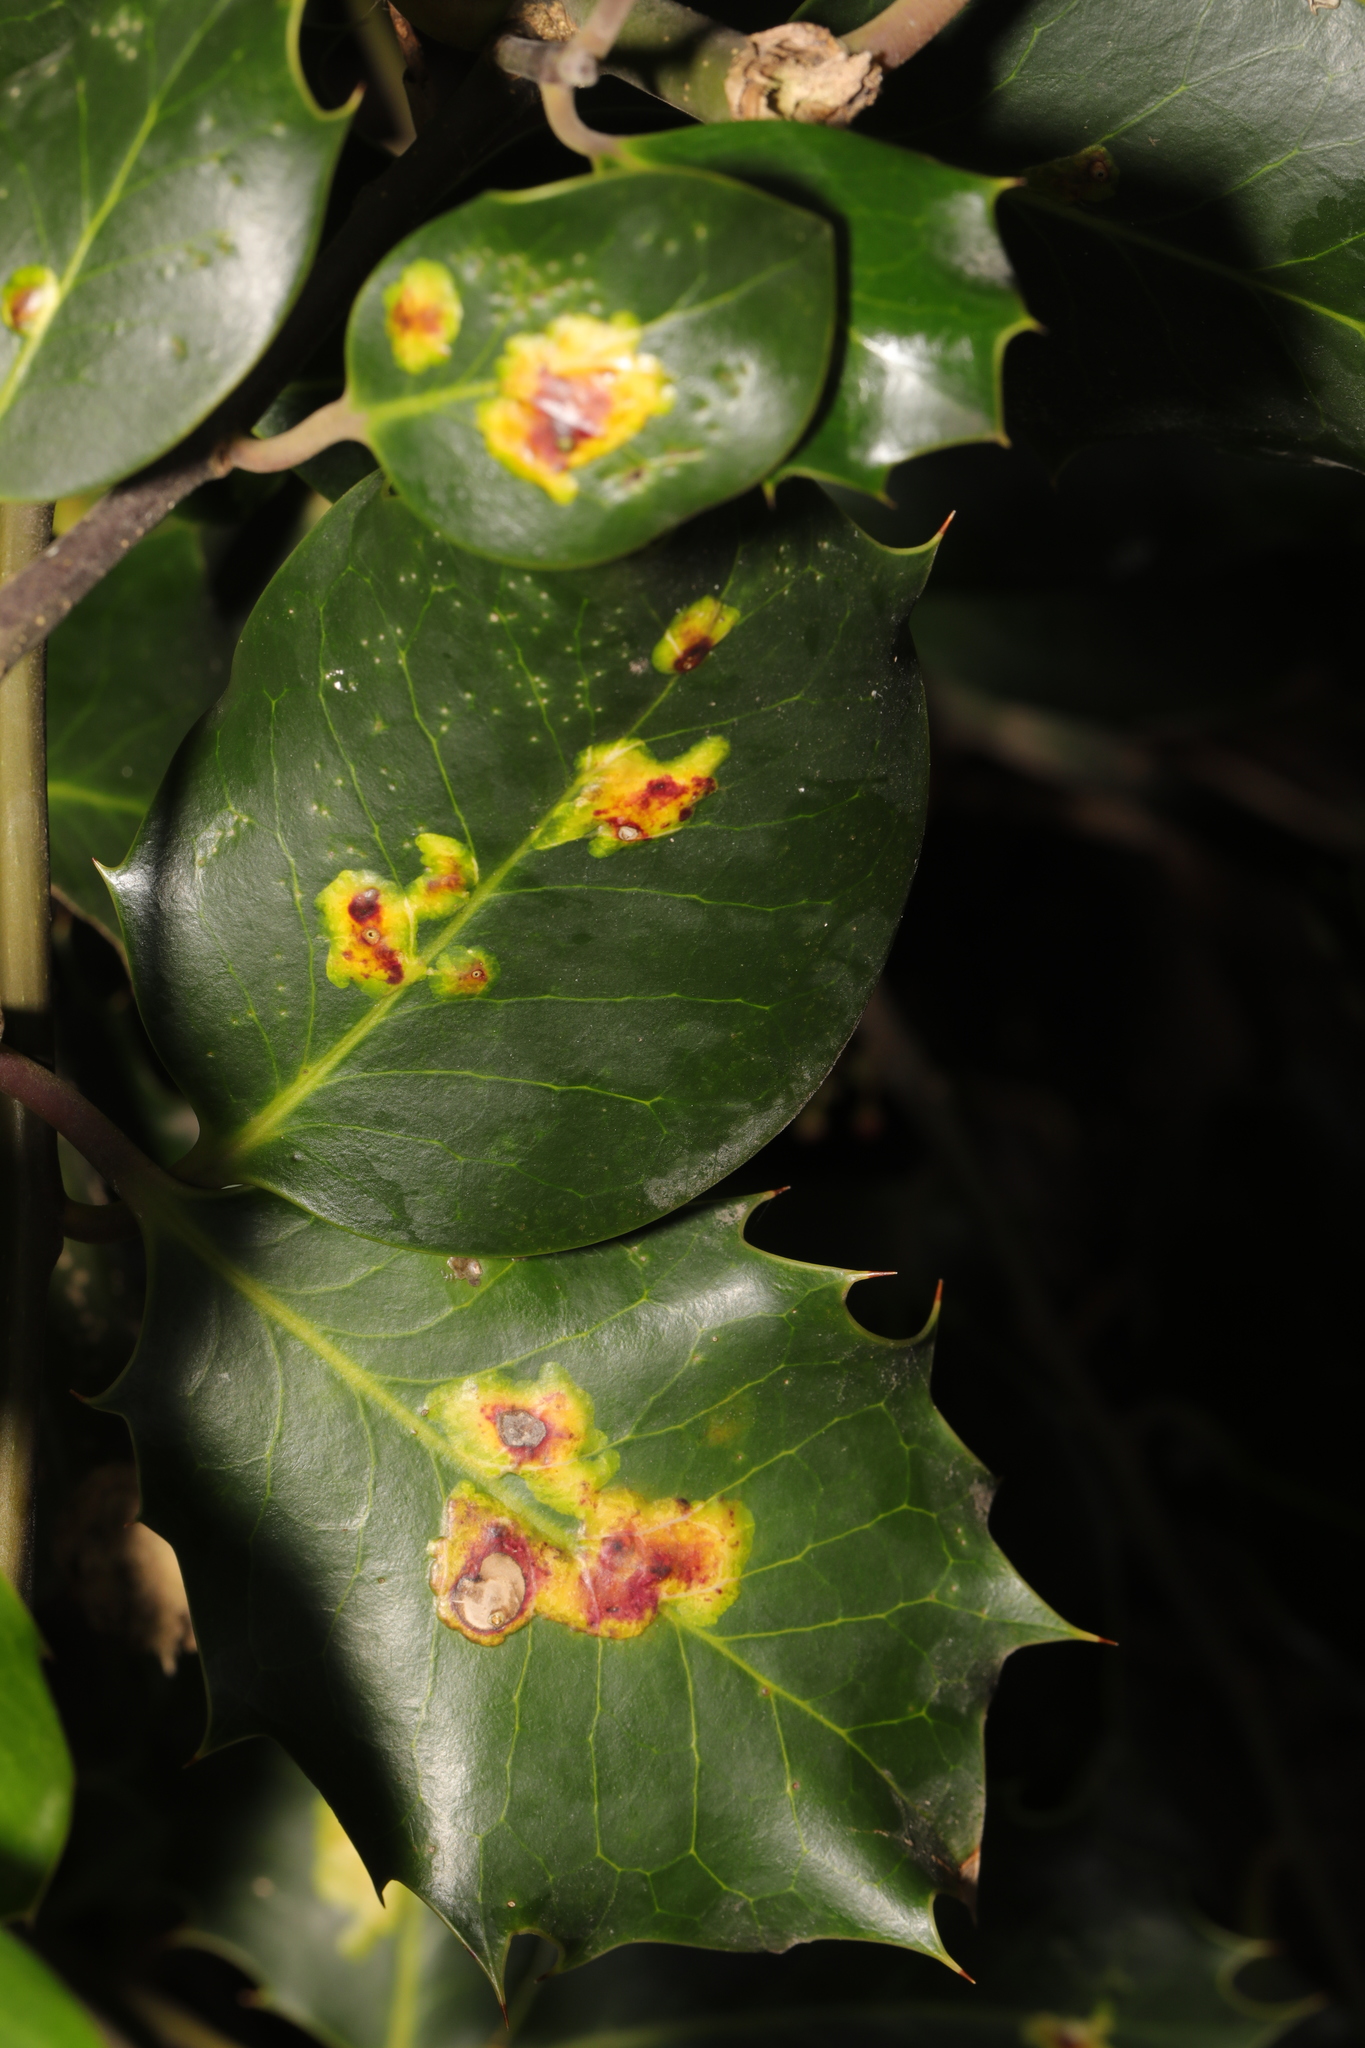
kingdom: Animalia
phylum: Arthropoda
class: Insecta
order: Diptera
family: Agromyzidae
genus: Phytomyza
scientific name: Phytomyza ilicis
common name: Holly leafminer
